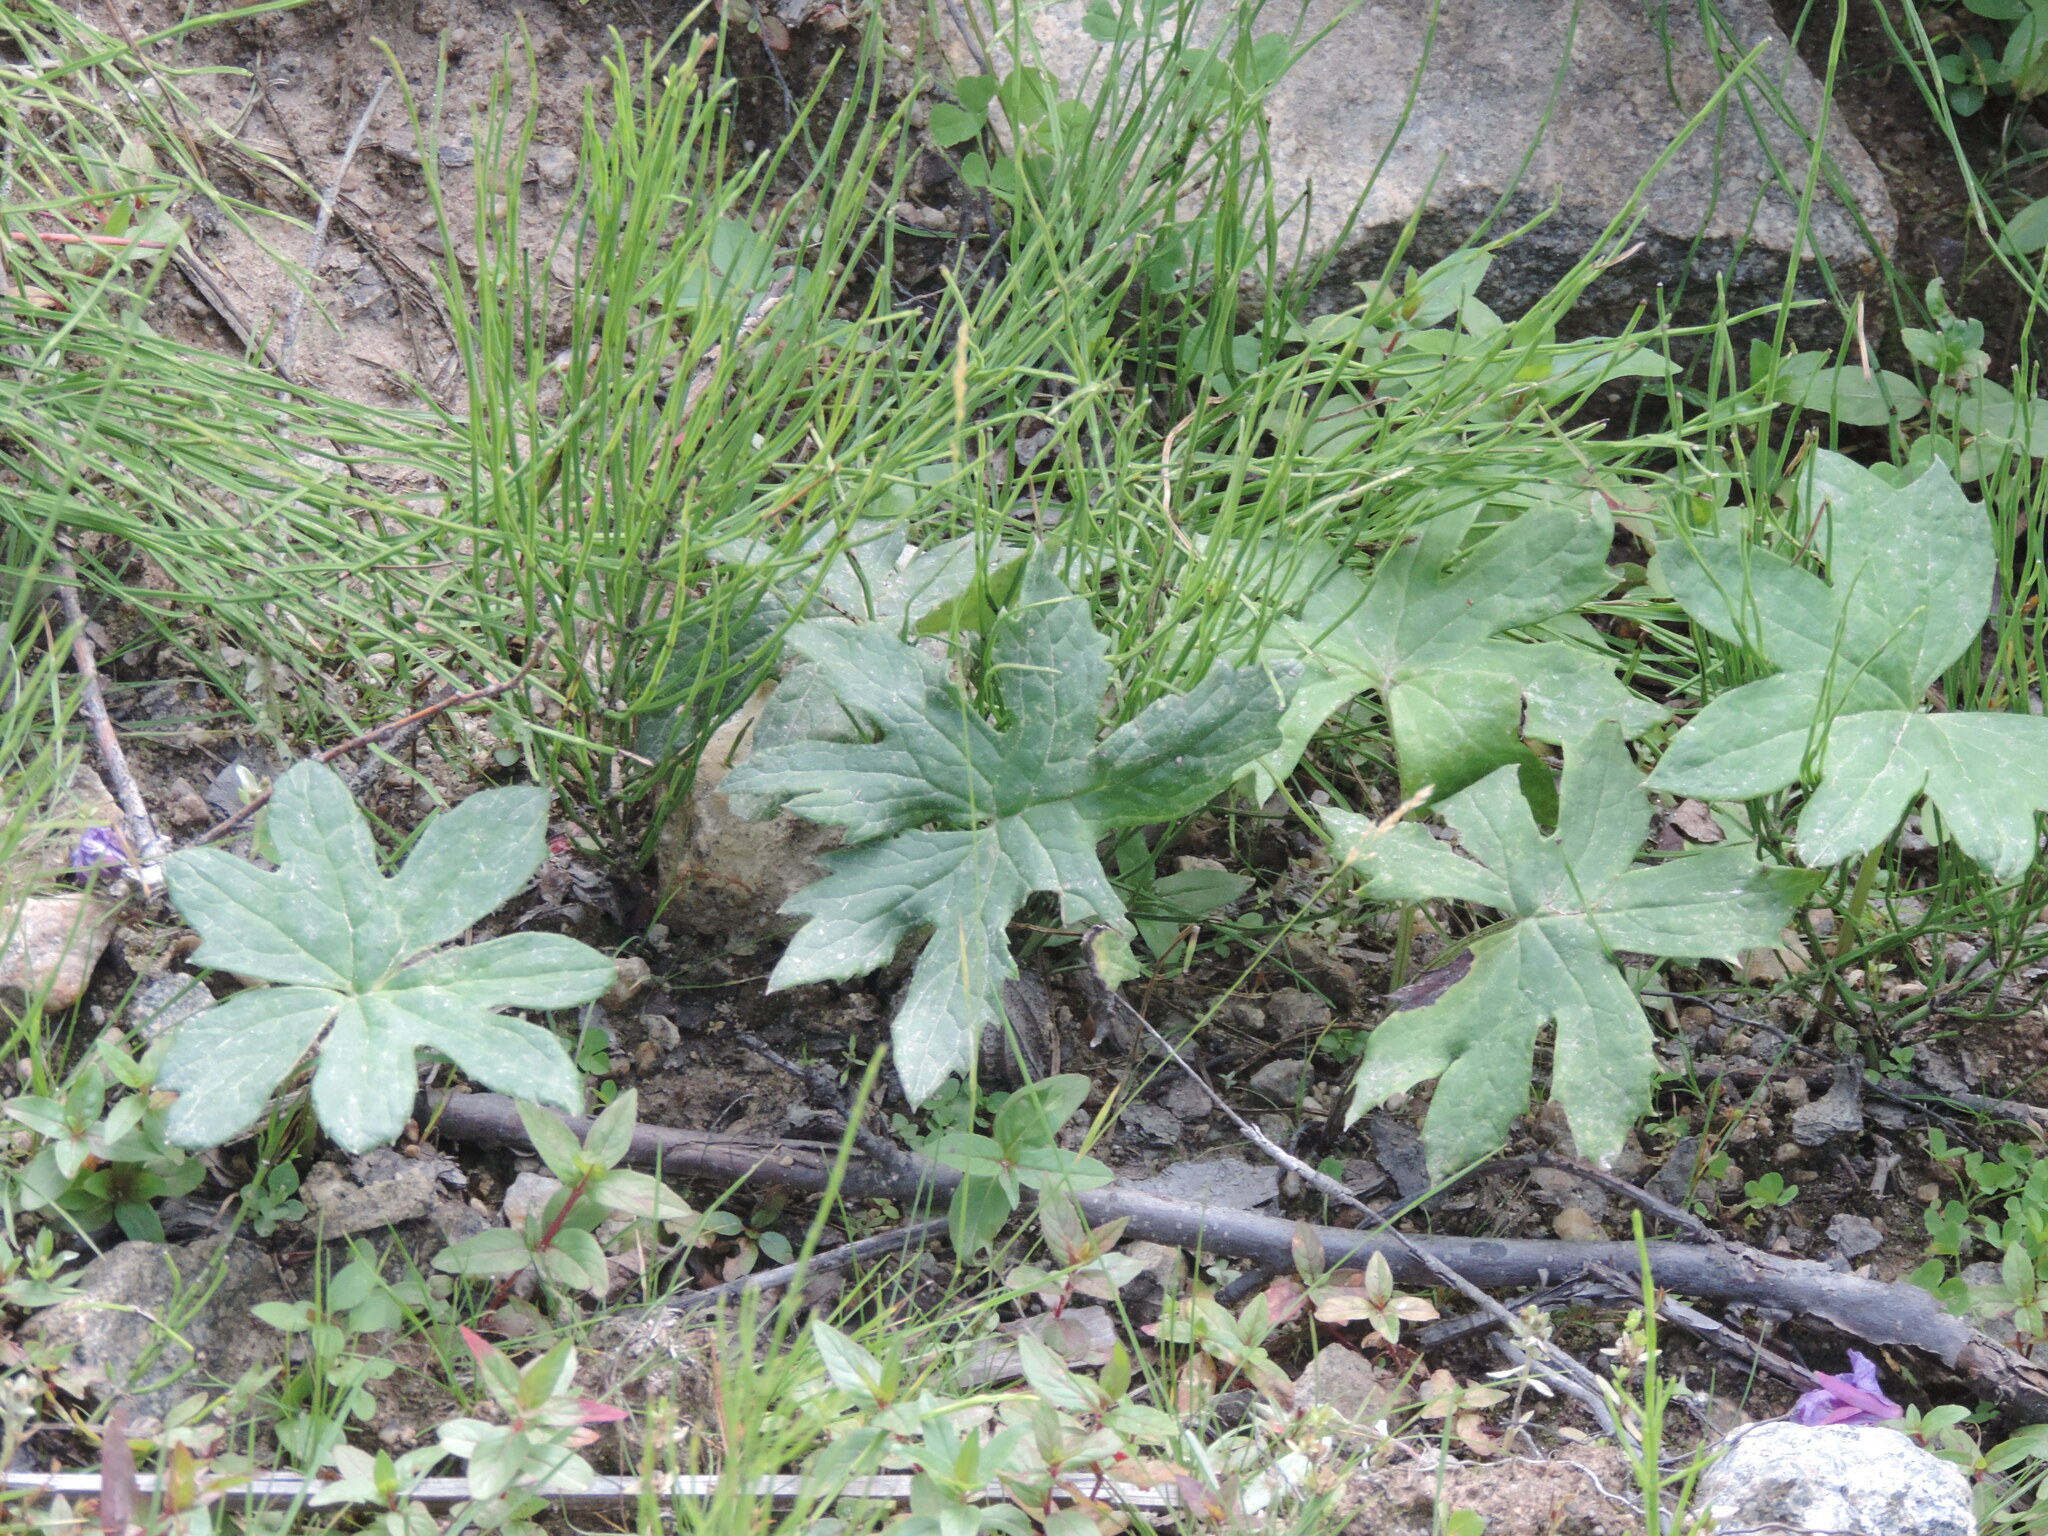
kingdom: Plantae
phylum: Tracheophyta
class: Magnoliopsida
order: Asterales
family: Asteraceae
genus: Petasites
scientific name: Petasites frigidus
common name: Arctic butterbur
